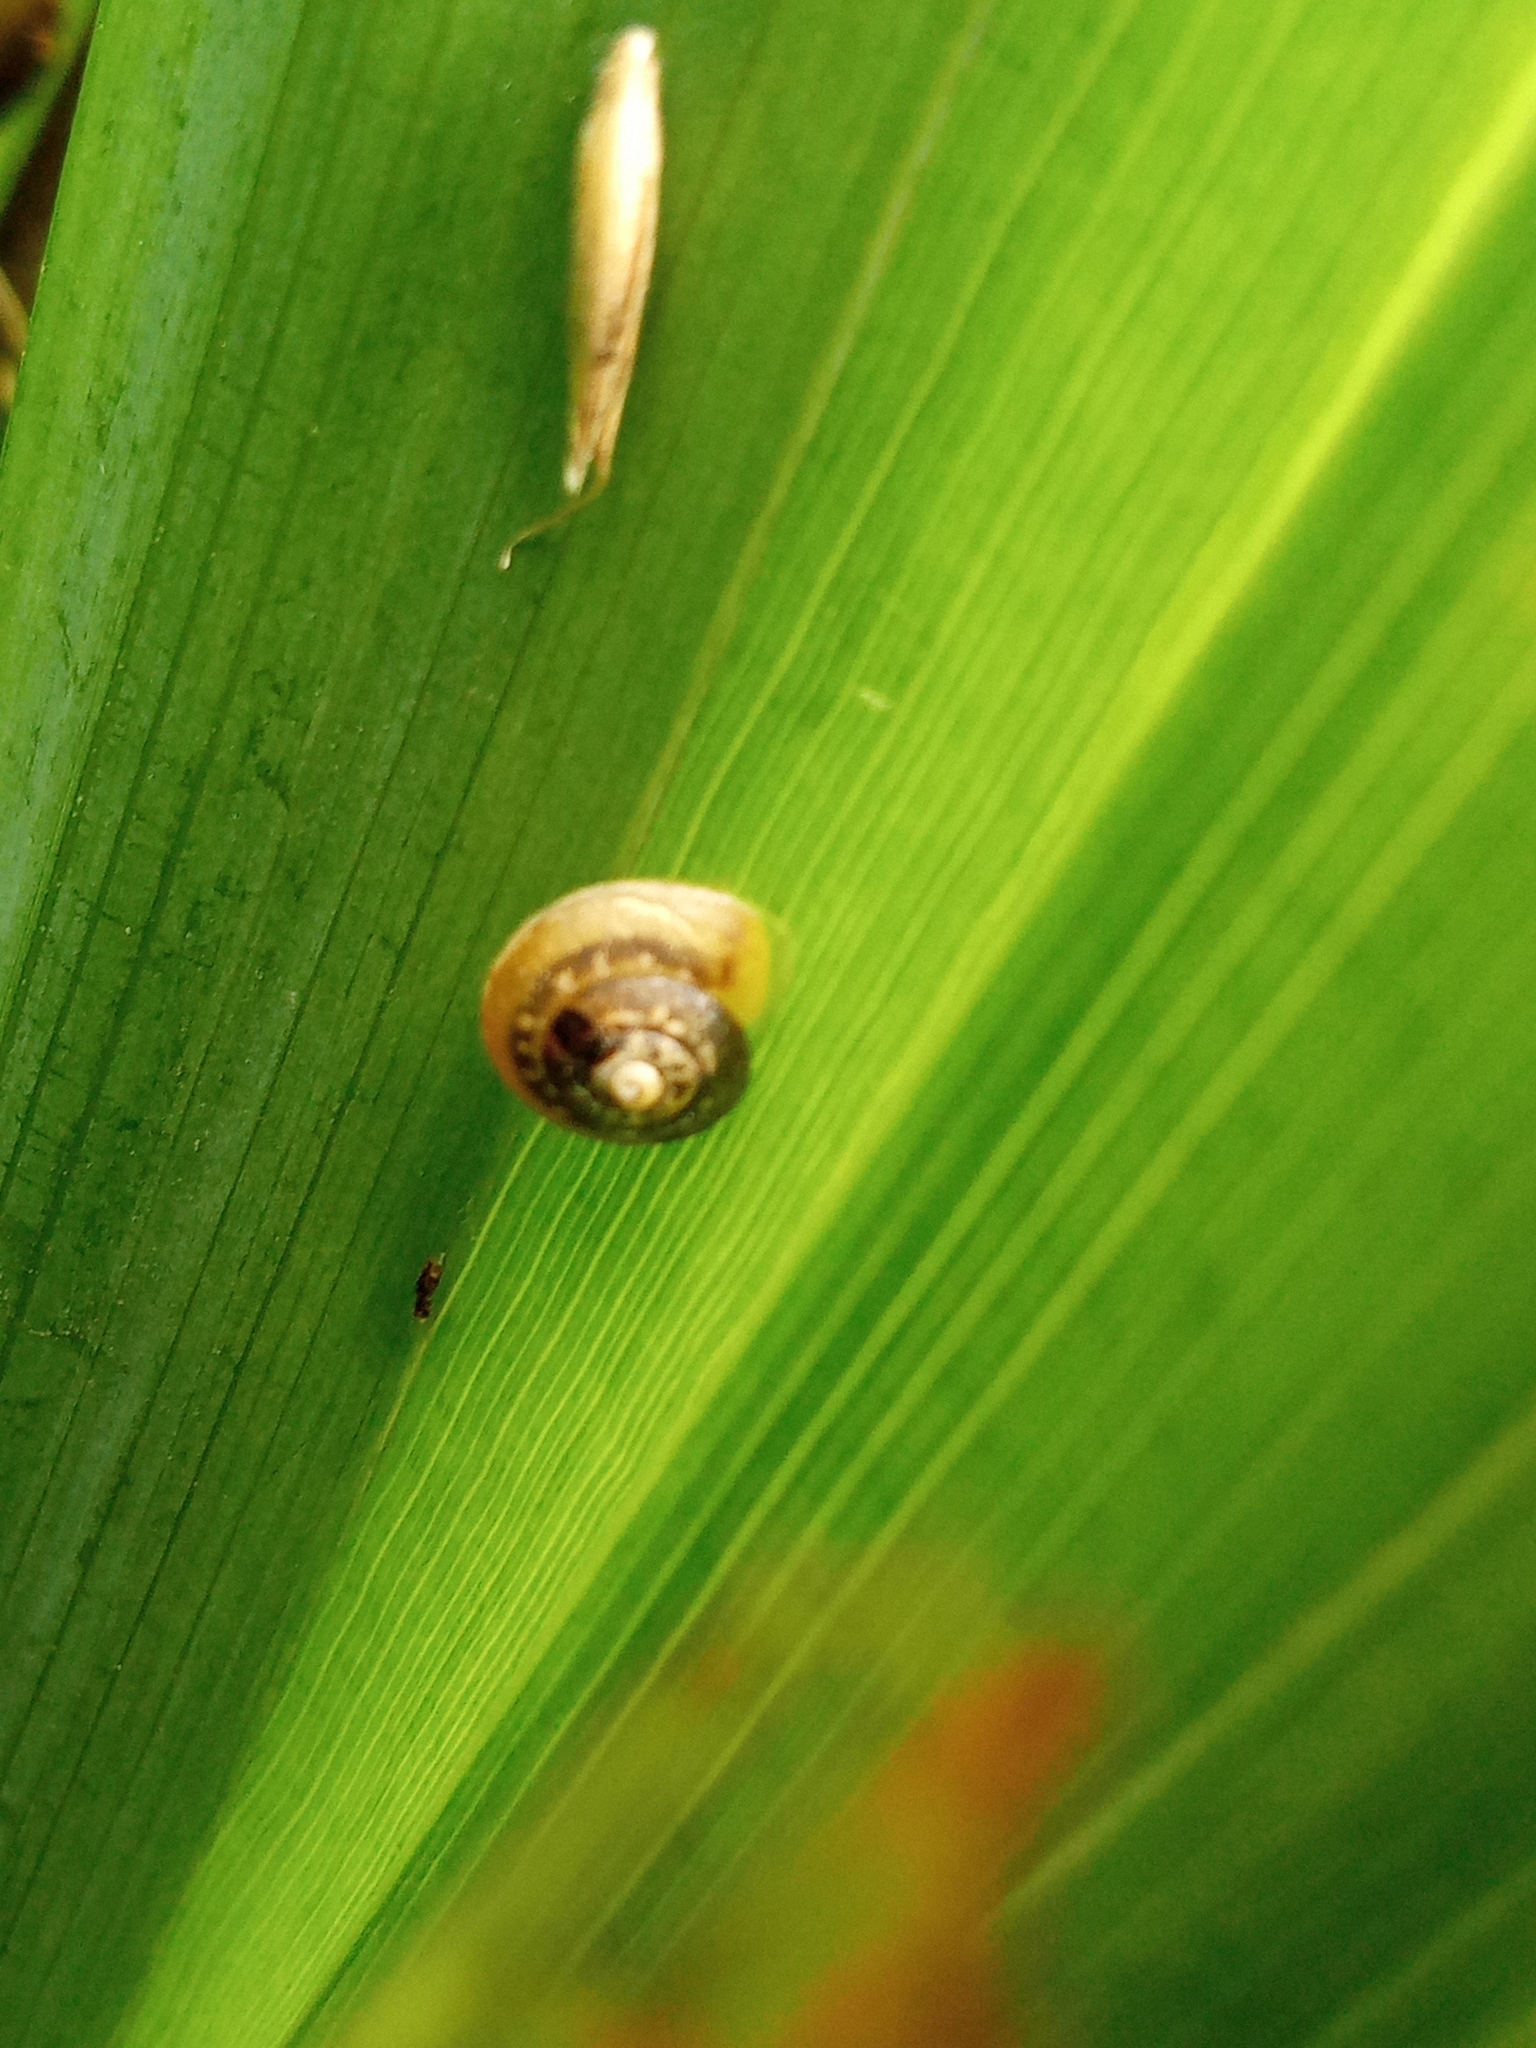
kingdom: Animalia
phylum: Mollusca
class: Gastropoda
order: Stylommatophora
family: Hygromiidae
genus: Hygromia
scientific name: Hygromia cinctella
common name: Girdled snail
